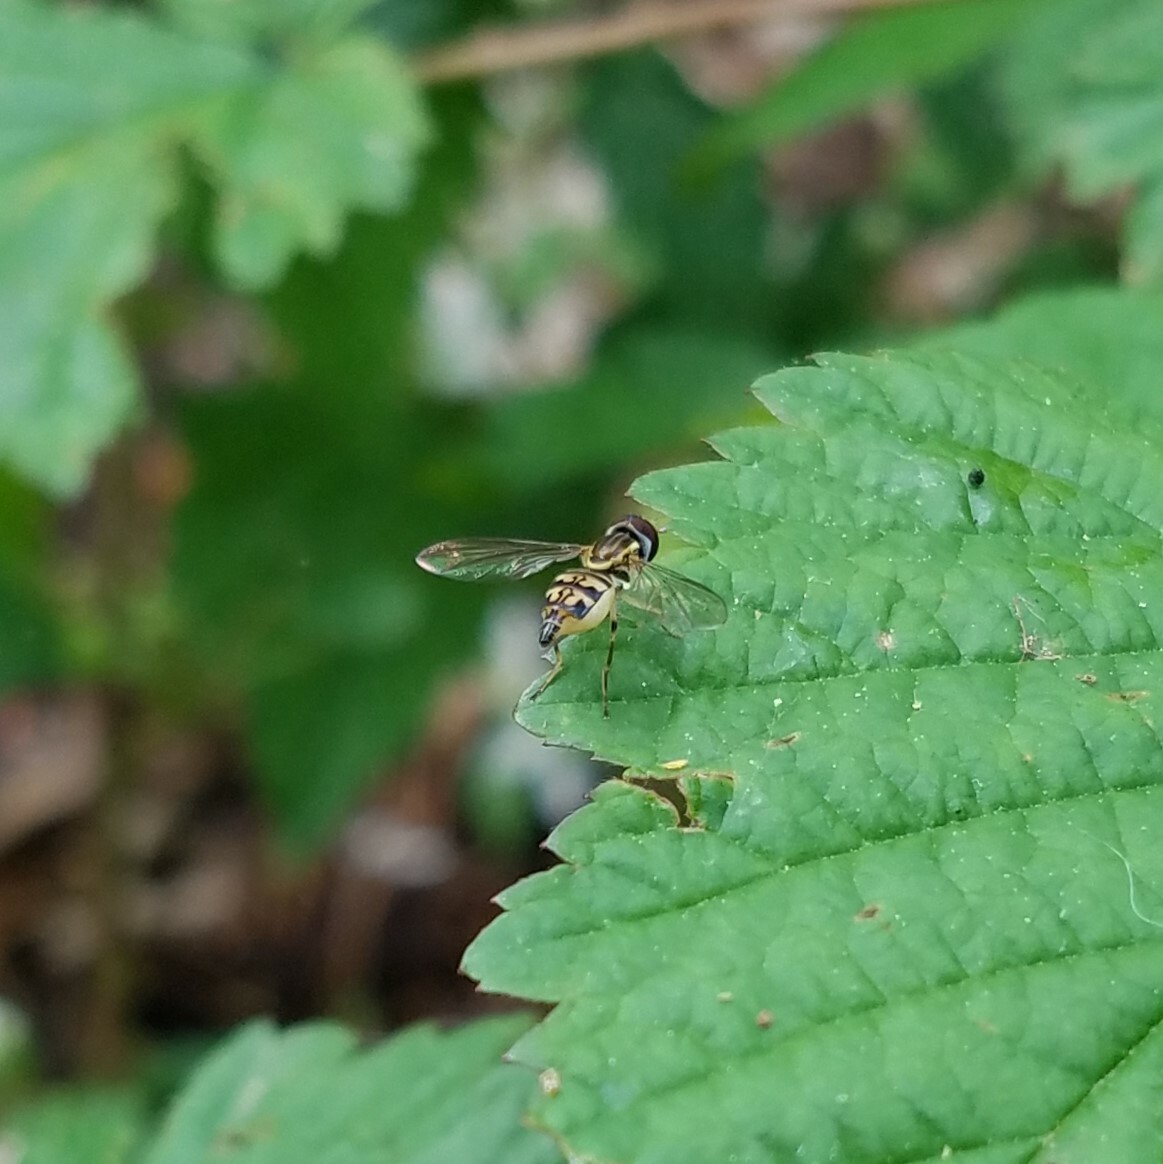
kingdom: Animalia
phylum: Arthropoda
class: Insecta
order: Diptera
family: Syrphidae
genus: Toxomerus
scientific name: Toxomerus geminatus
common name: Eastern calligrapher
